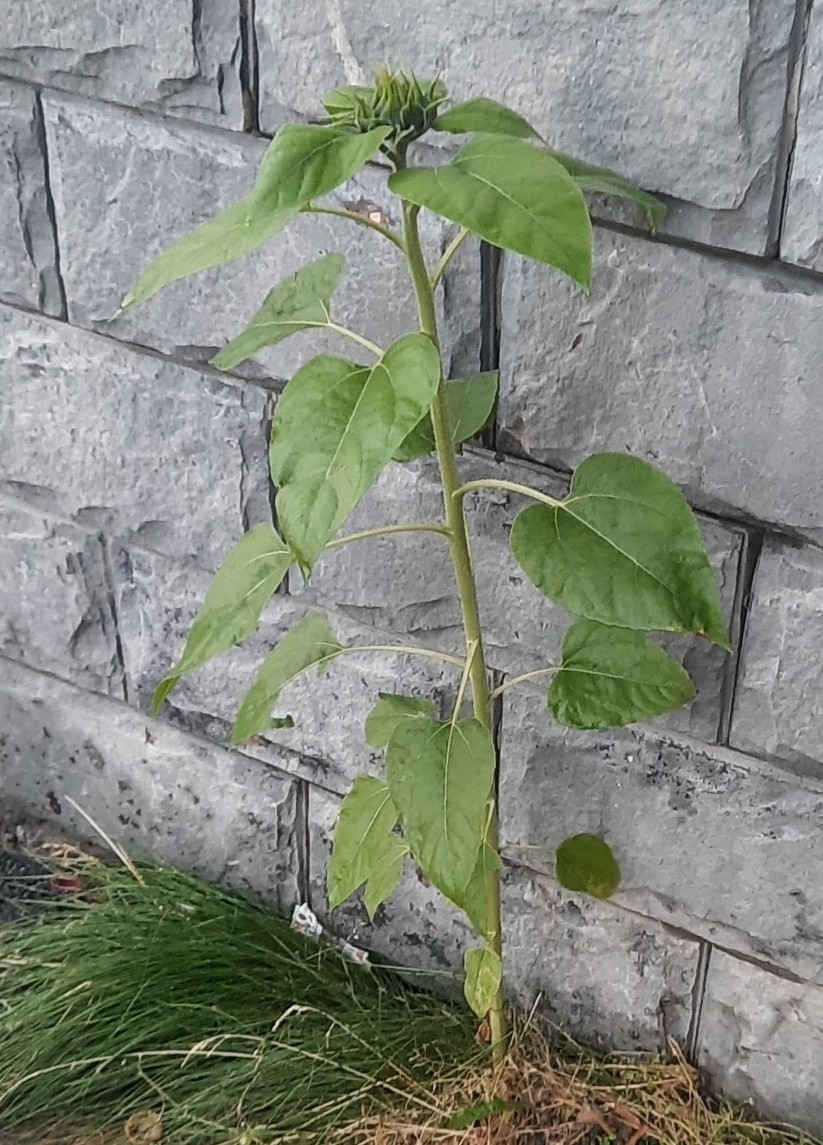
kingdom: Plantae
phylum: Tracheophyta
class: Magnoliopsida
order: Asterales
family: Asteraceae
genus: Helianthus
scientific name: Helianthus annuus
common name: Sunflower
